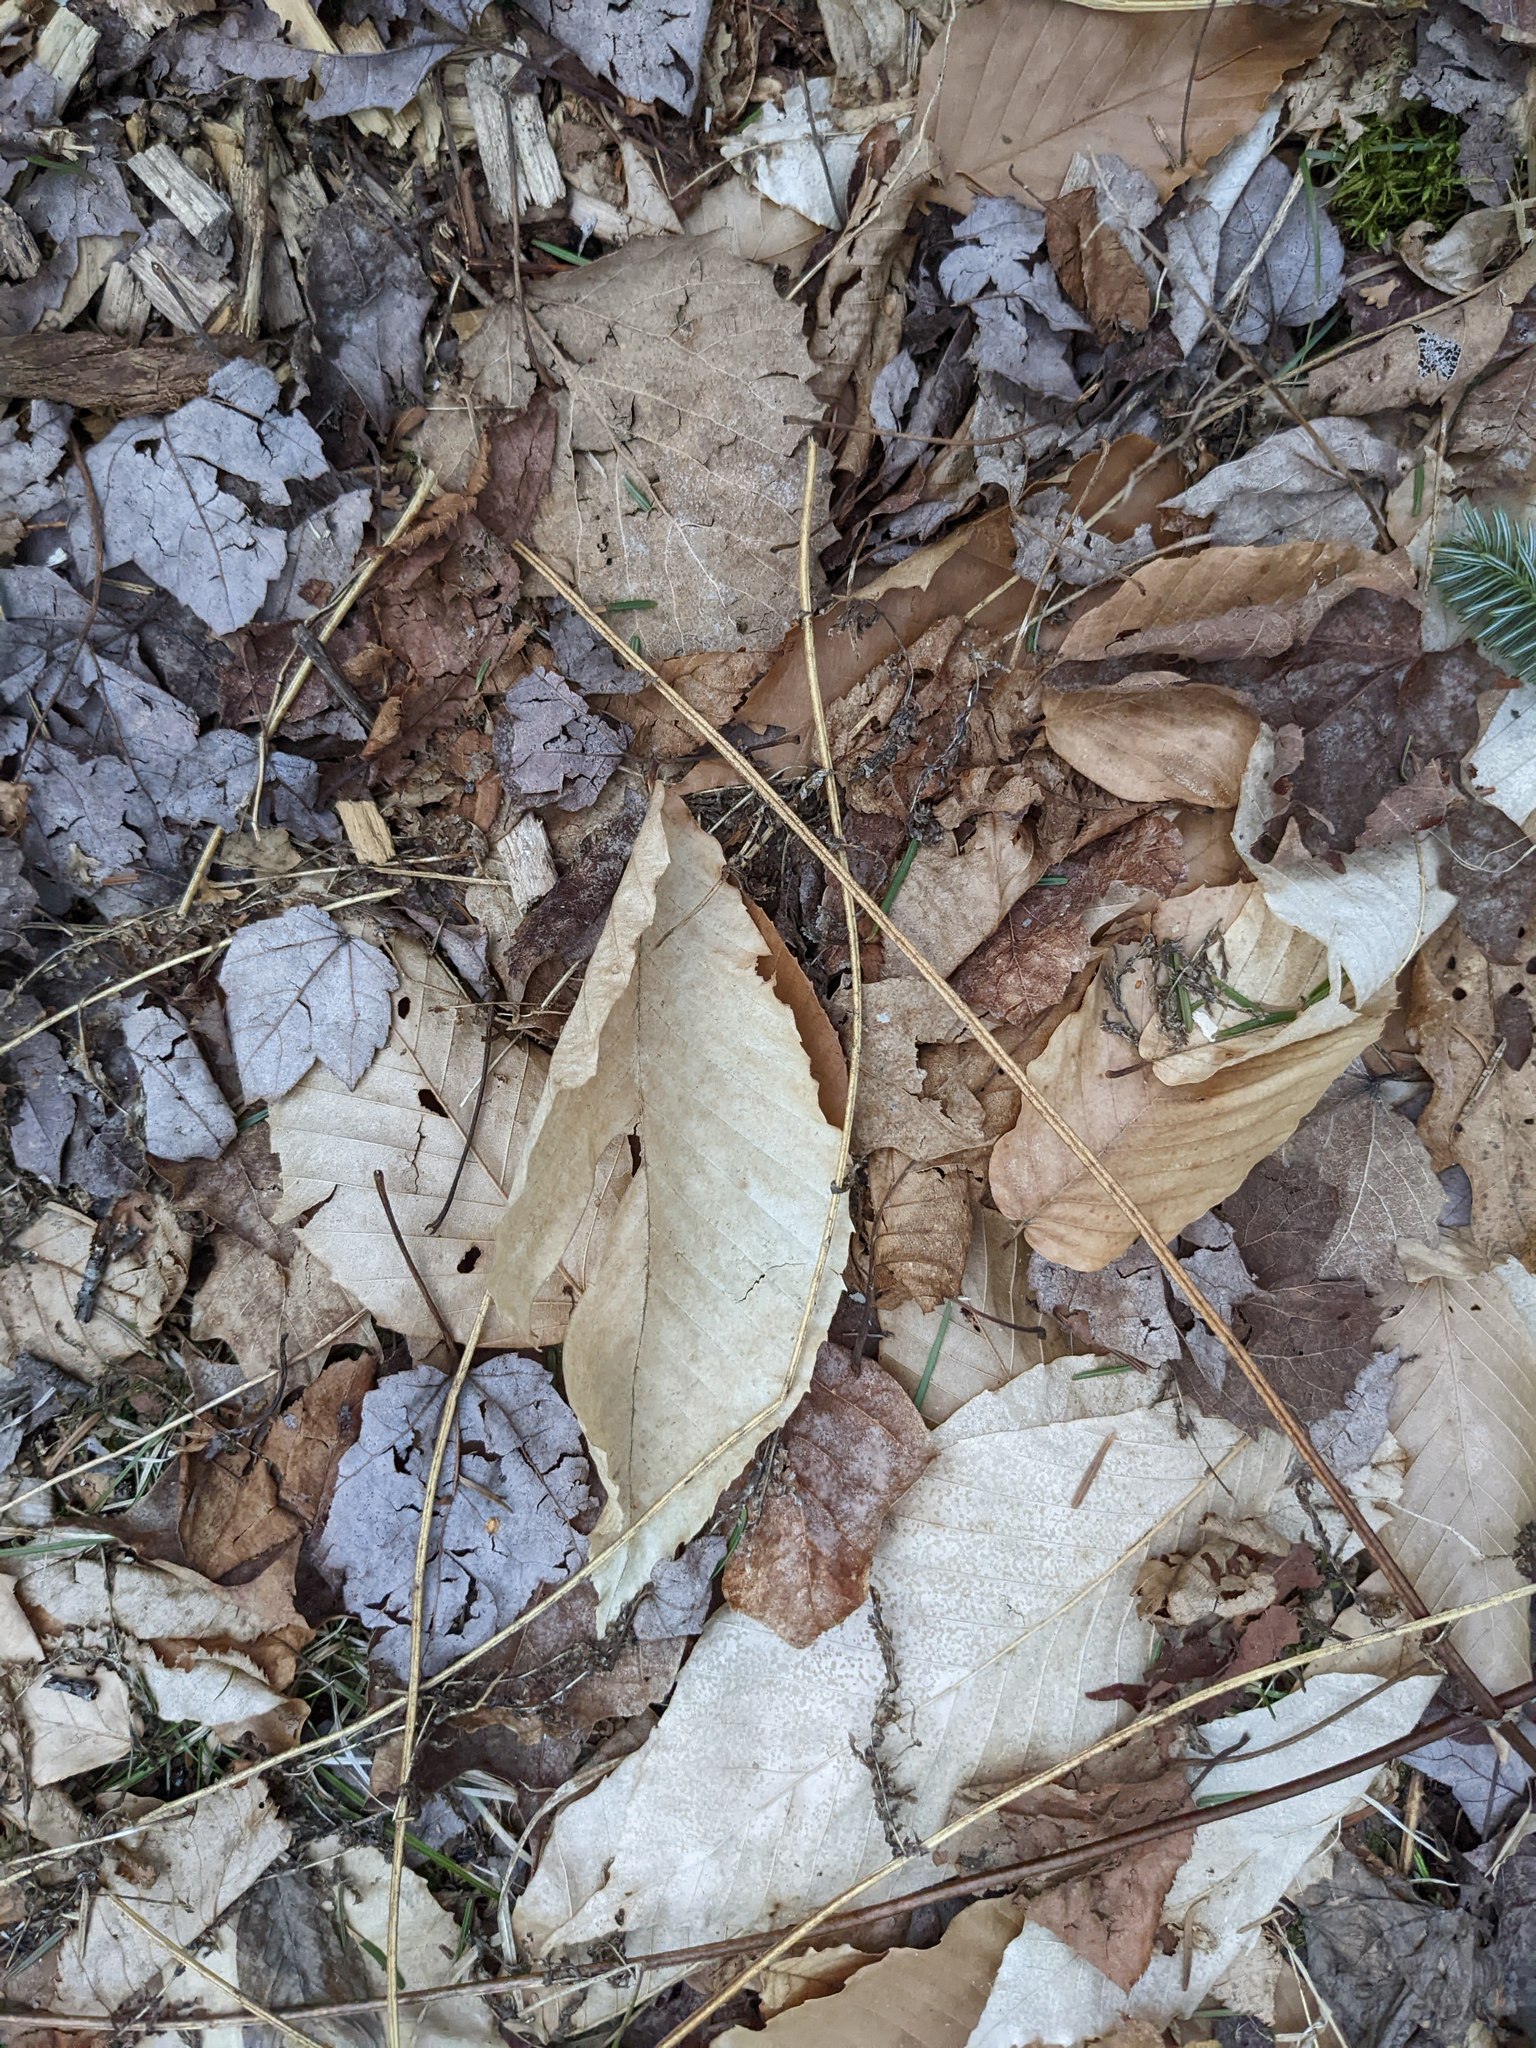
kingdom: Plantae
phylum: Tracheophyta
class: Magnoliopsida
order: Fagales
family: Fagaceae
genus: Fagus
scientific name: Fagus grandifolia
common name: American beech
